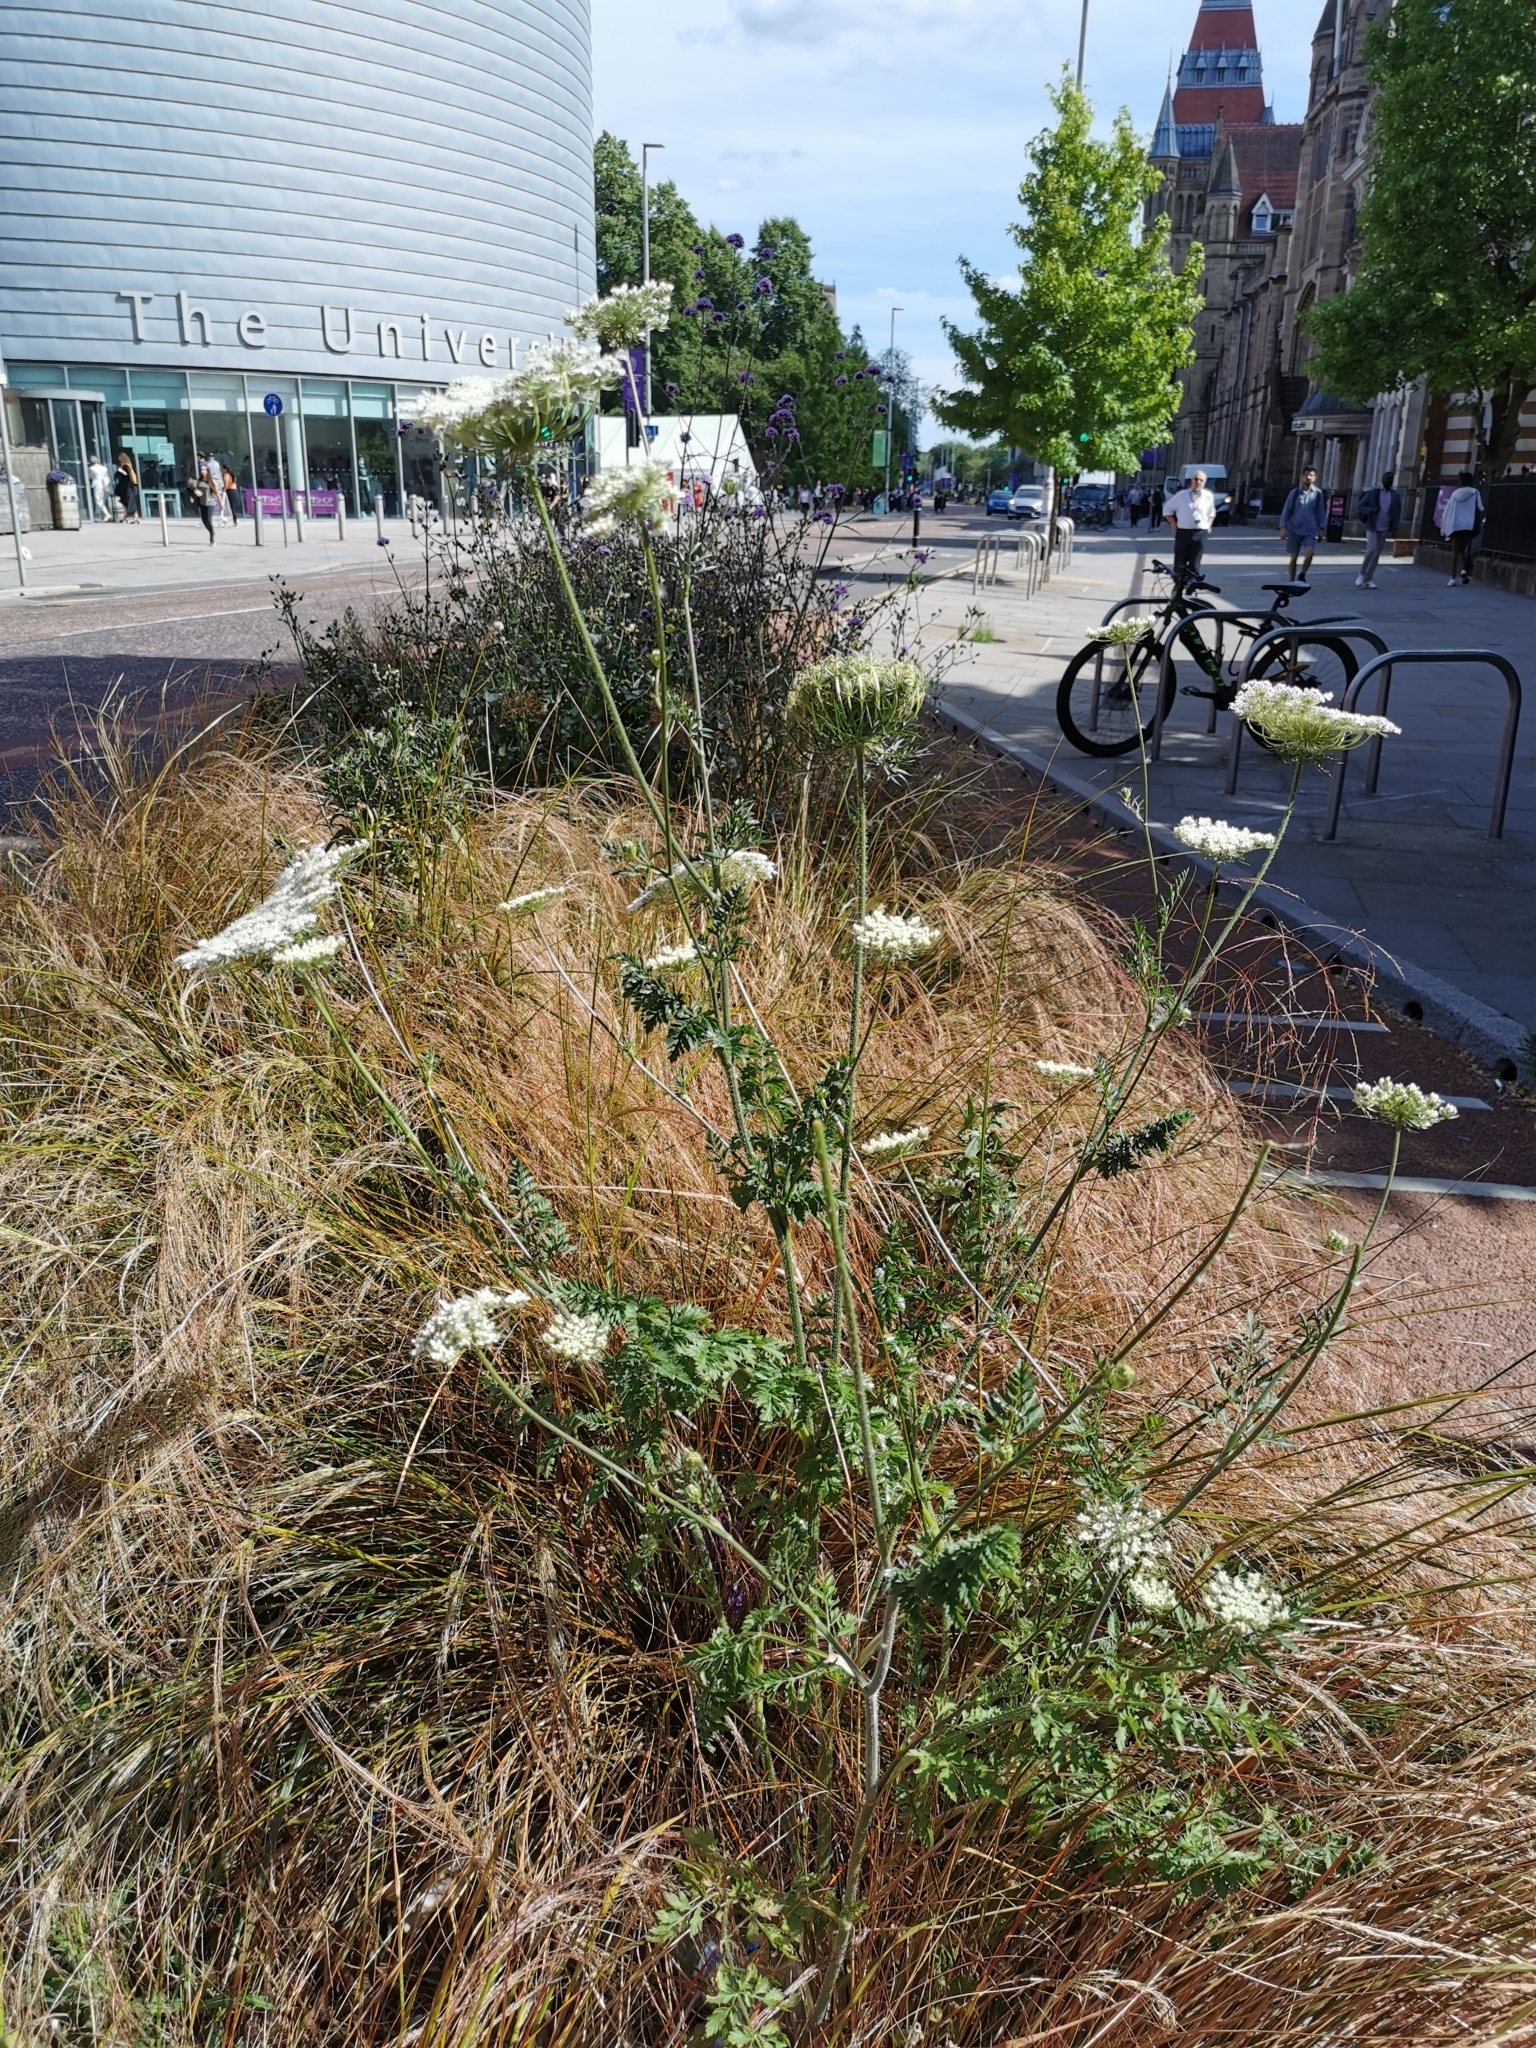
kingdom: Plantae
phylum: Tracheophyta
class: Magnoliopsida
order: Apiales
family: Apiaceae
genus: Daucus
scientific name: Daucus carota
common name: Wild carrot
